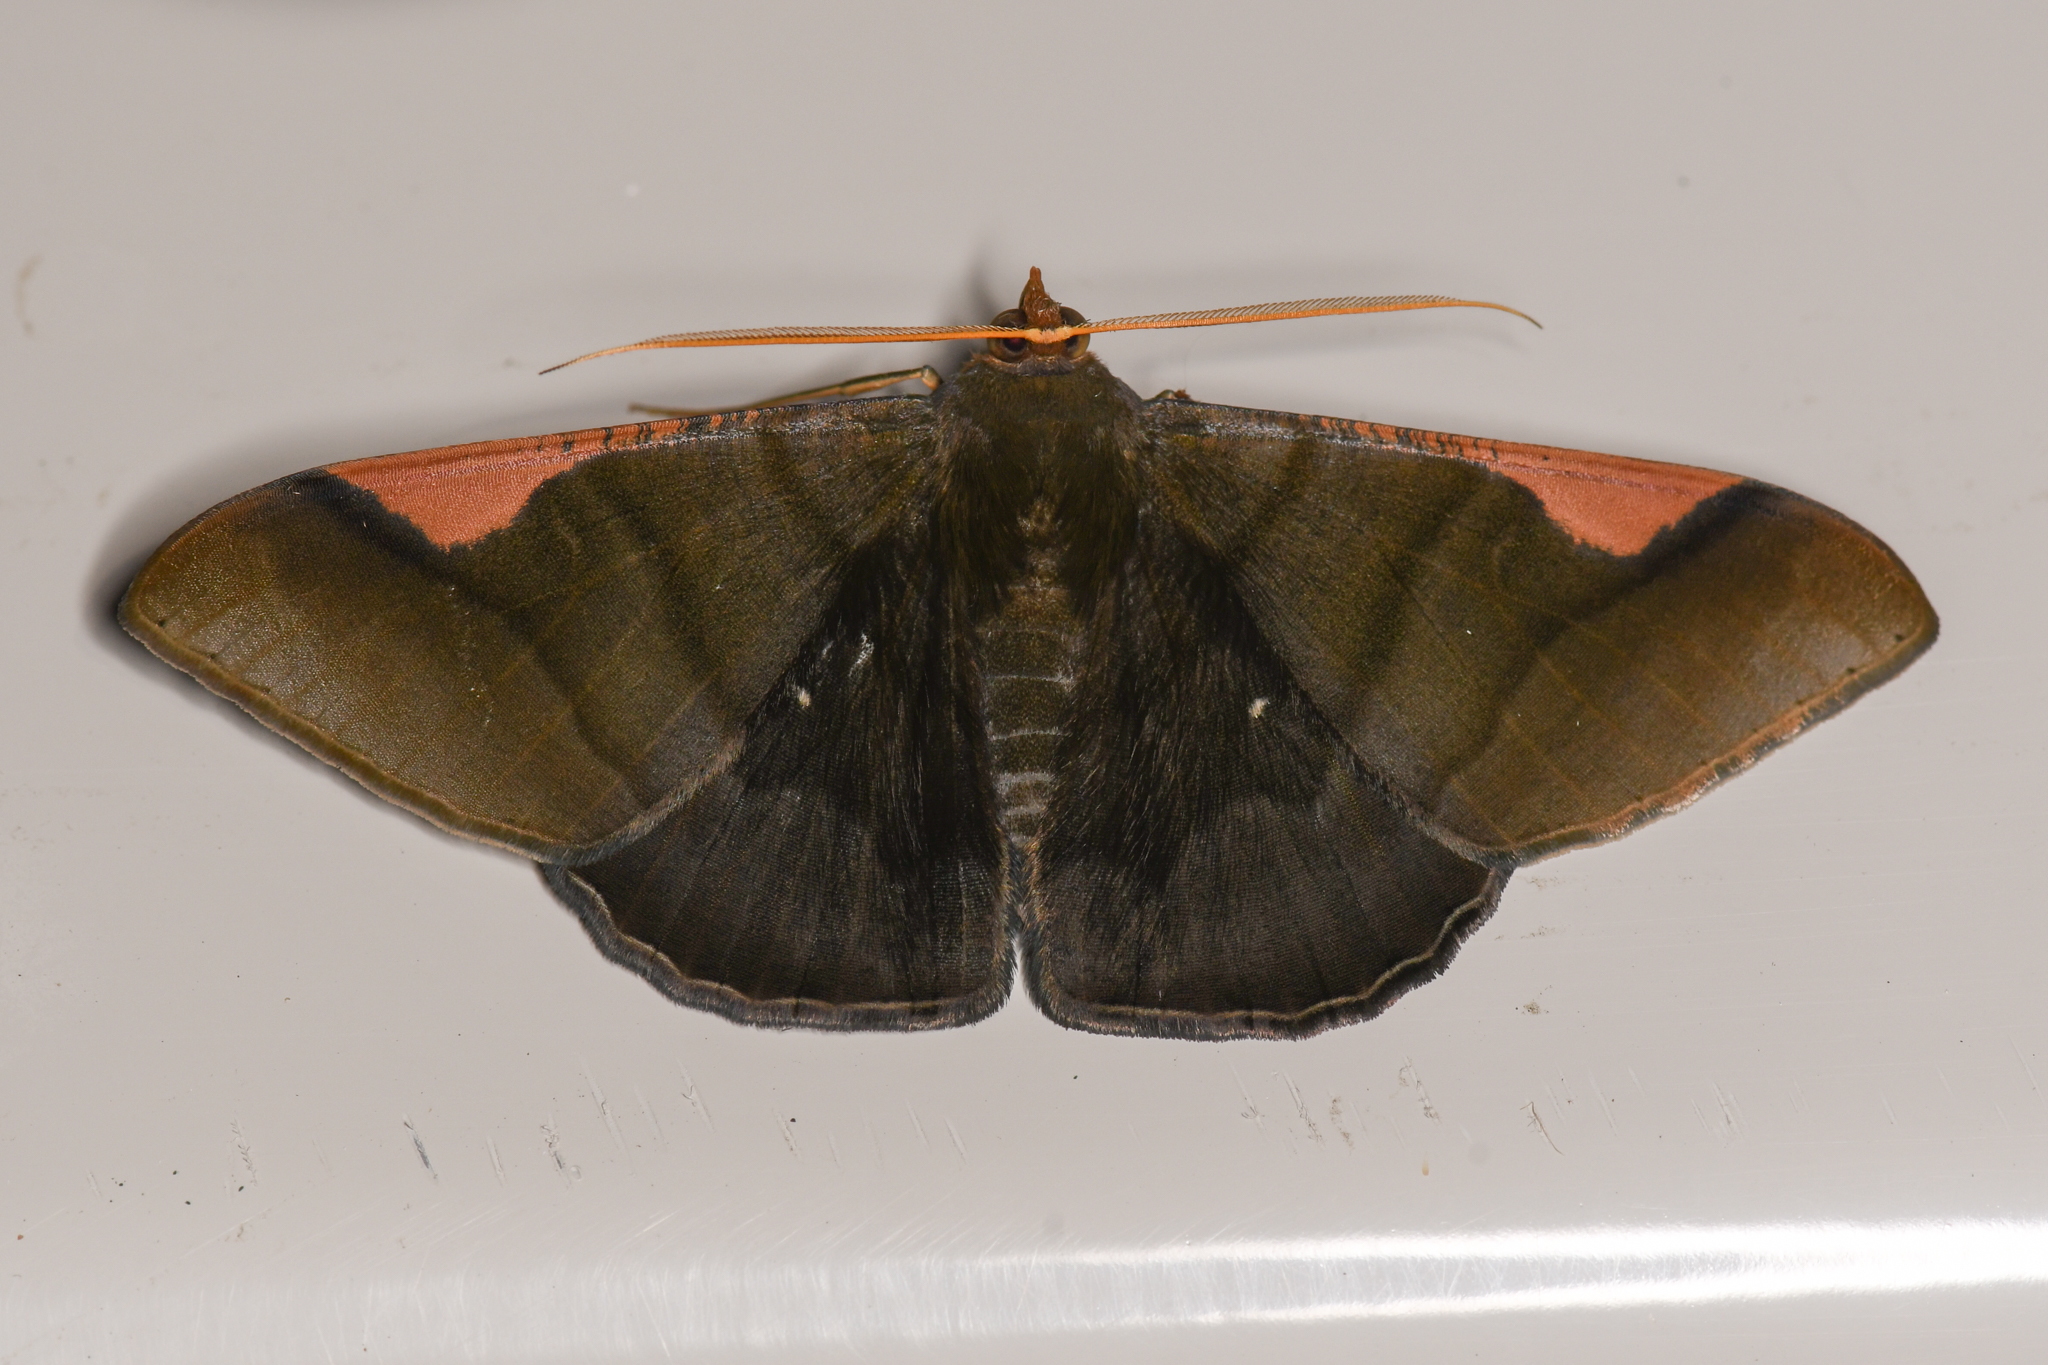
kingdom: Animalia
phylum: Arthropoda
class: Insecta
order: Lepidoptera
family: Geometridae
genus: Sphacelodes
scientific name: Sphacelodes vulneraria
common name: Looper moth
